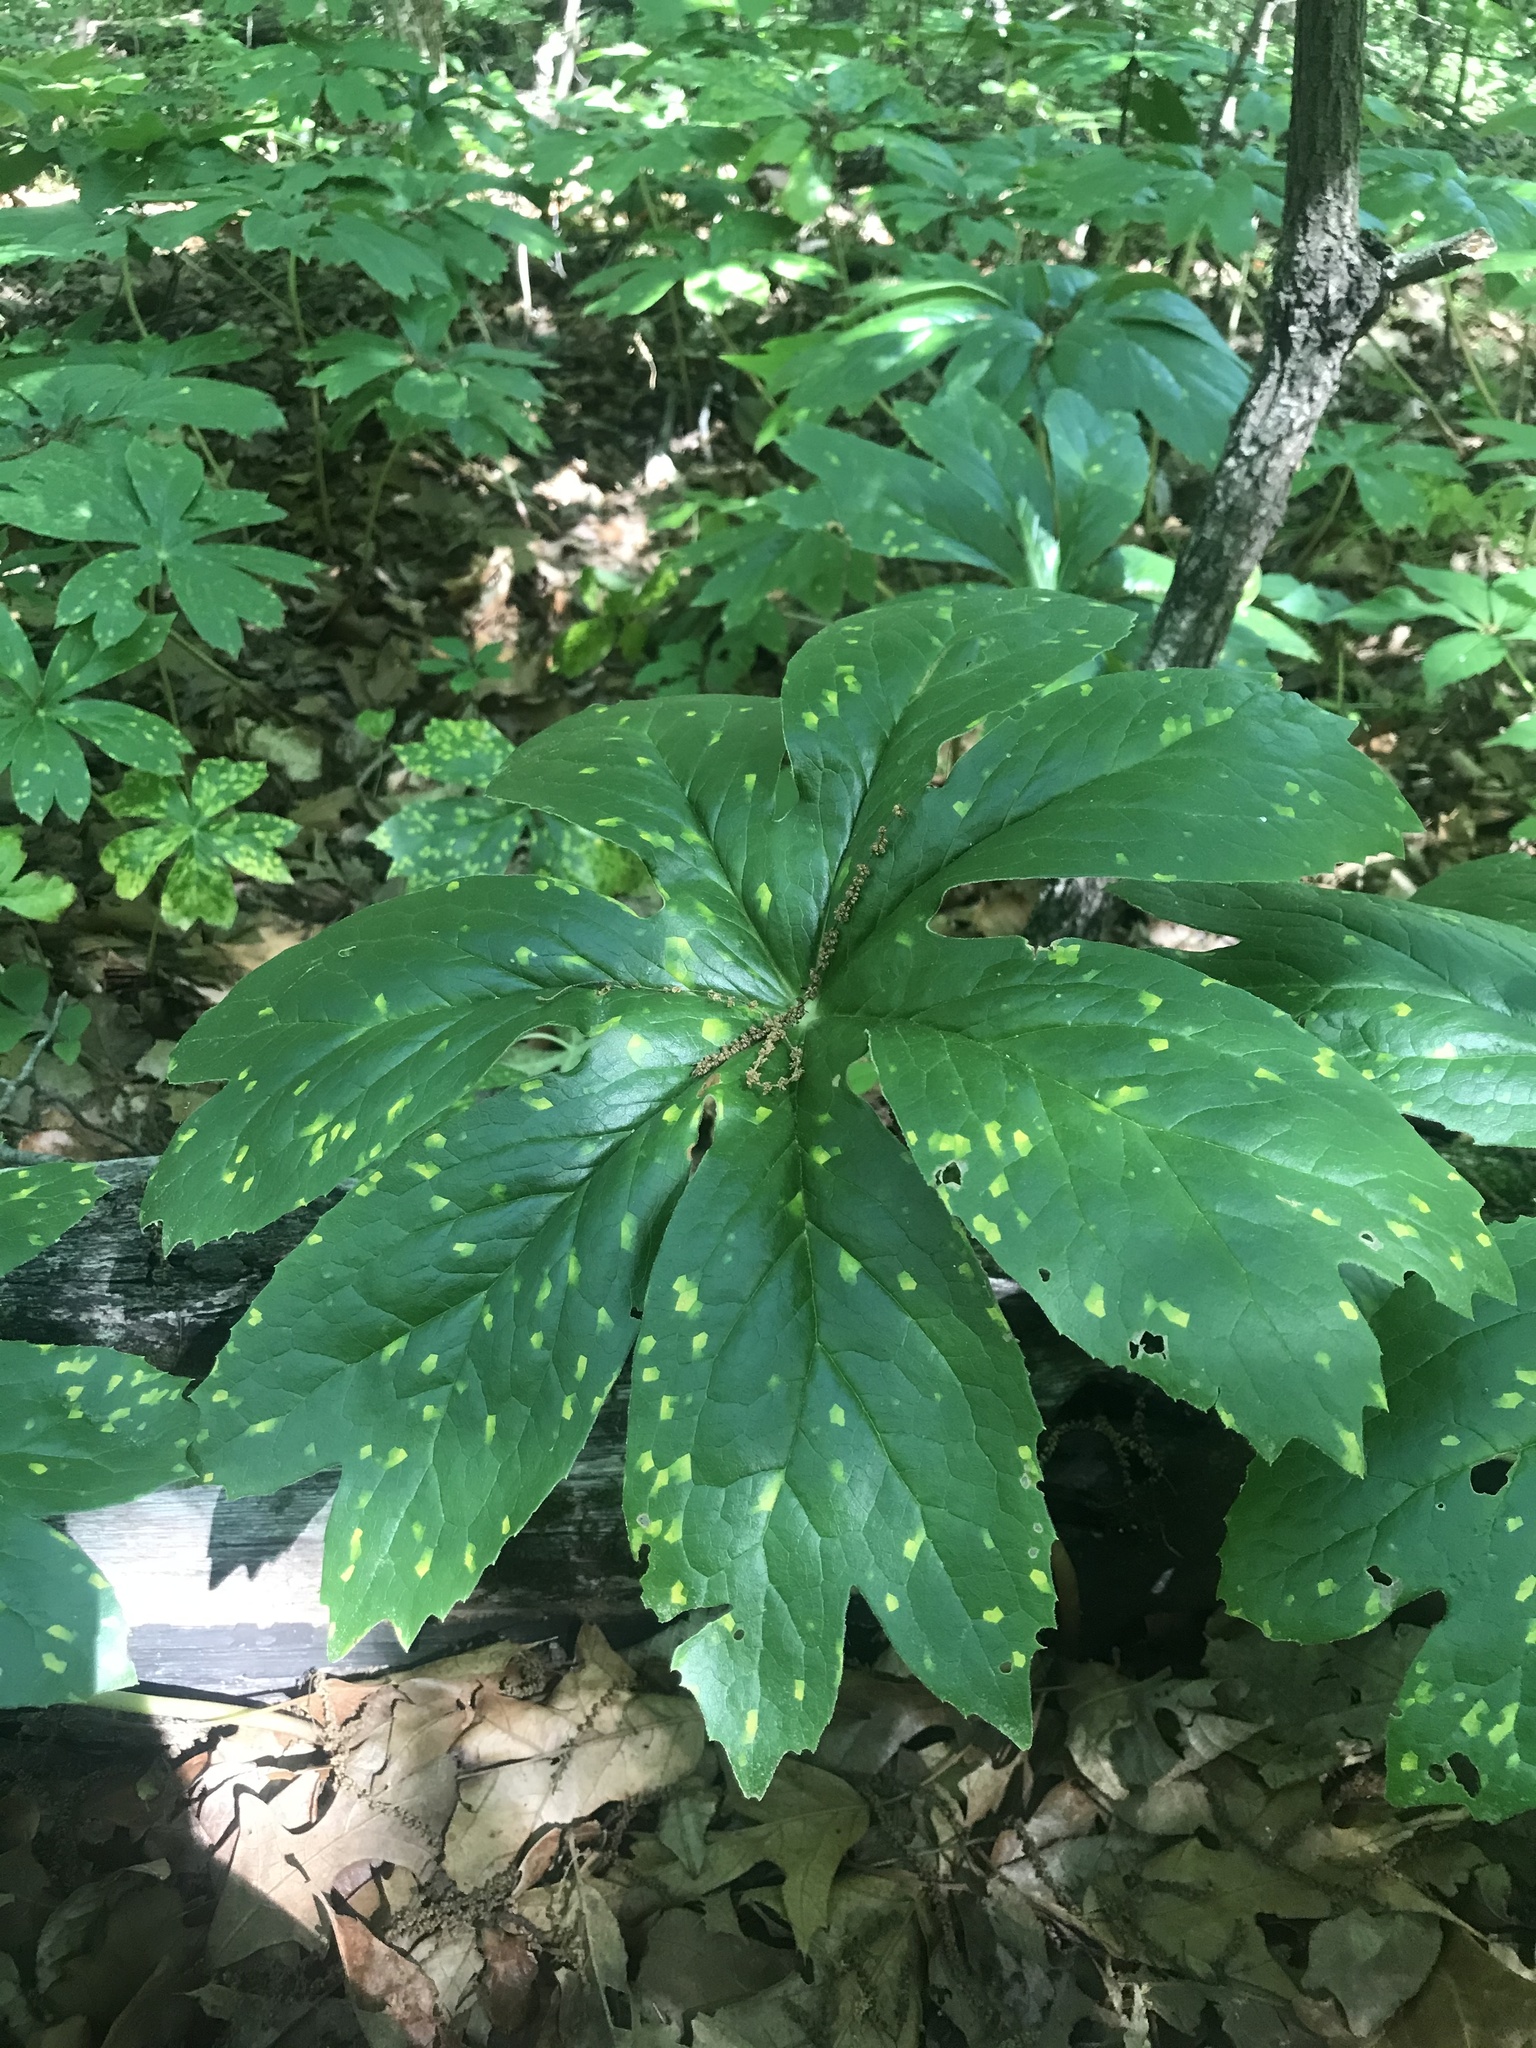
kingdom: Plantae
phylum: Tracheophyta
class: Magnoliopsida
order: Ranunculales
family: Berberidaceae
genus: Podophyllum
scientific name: Podophyllum peltatum
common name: Wild mandrake
